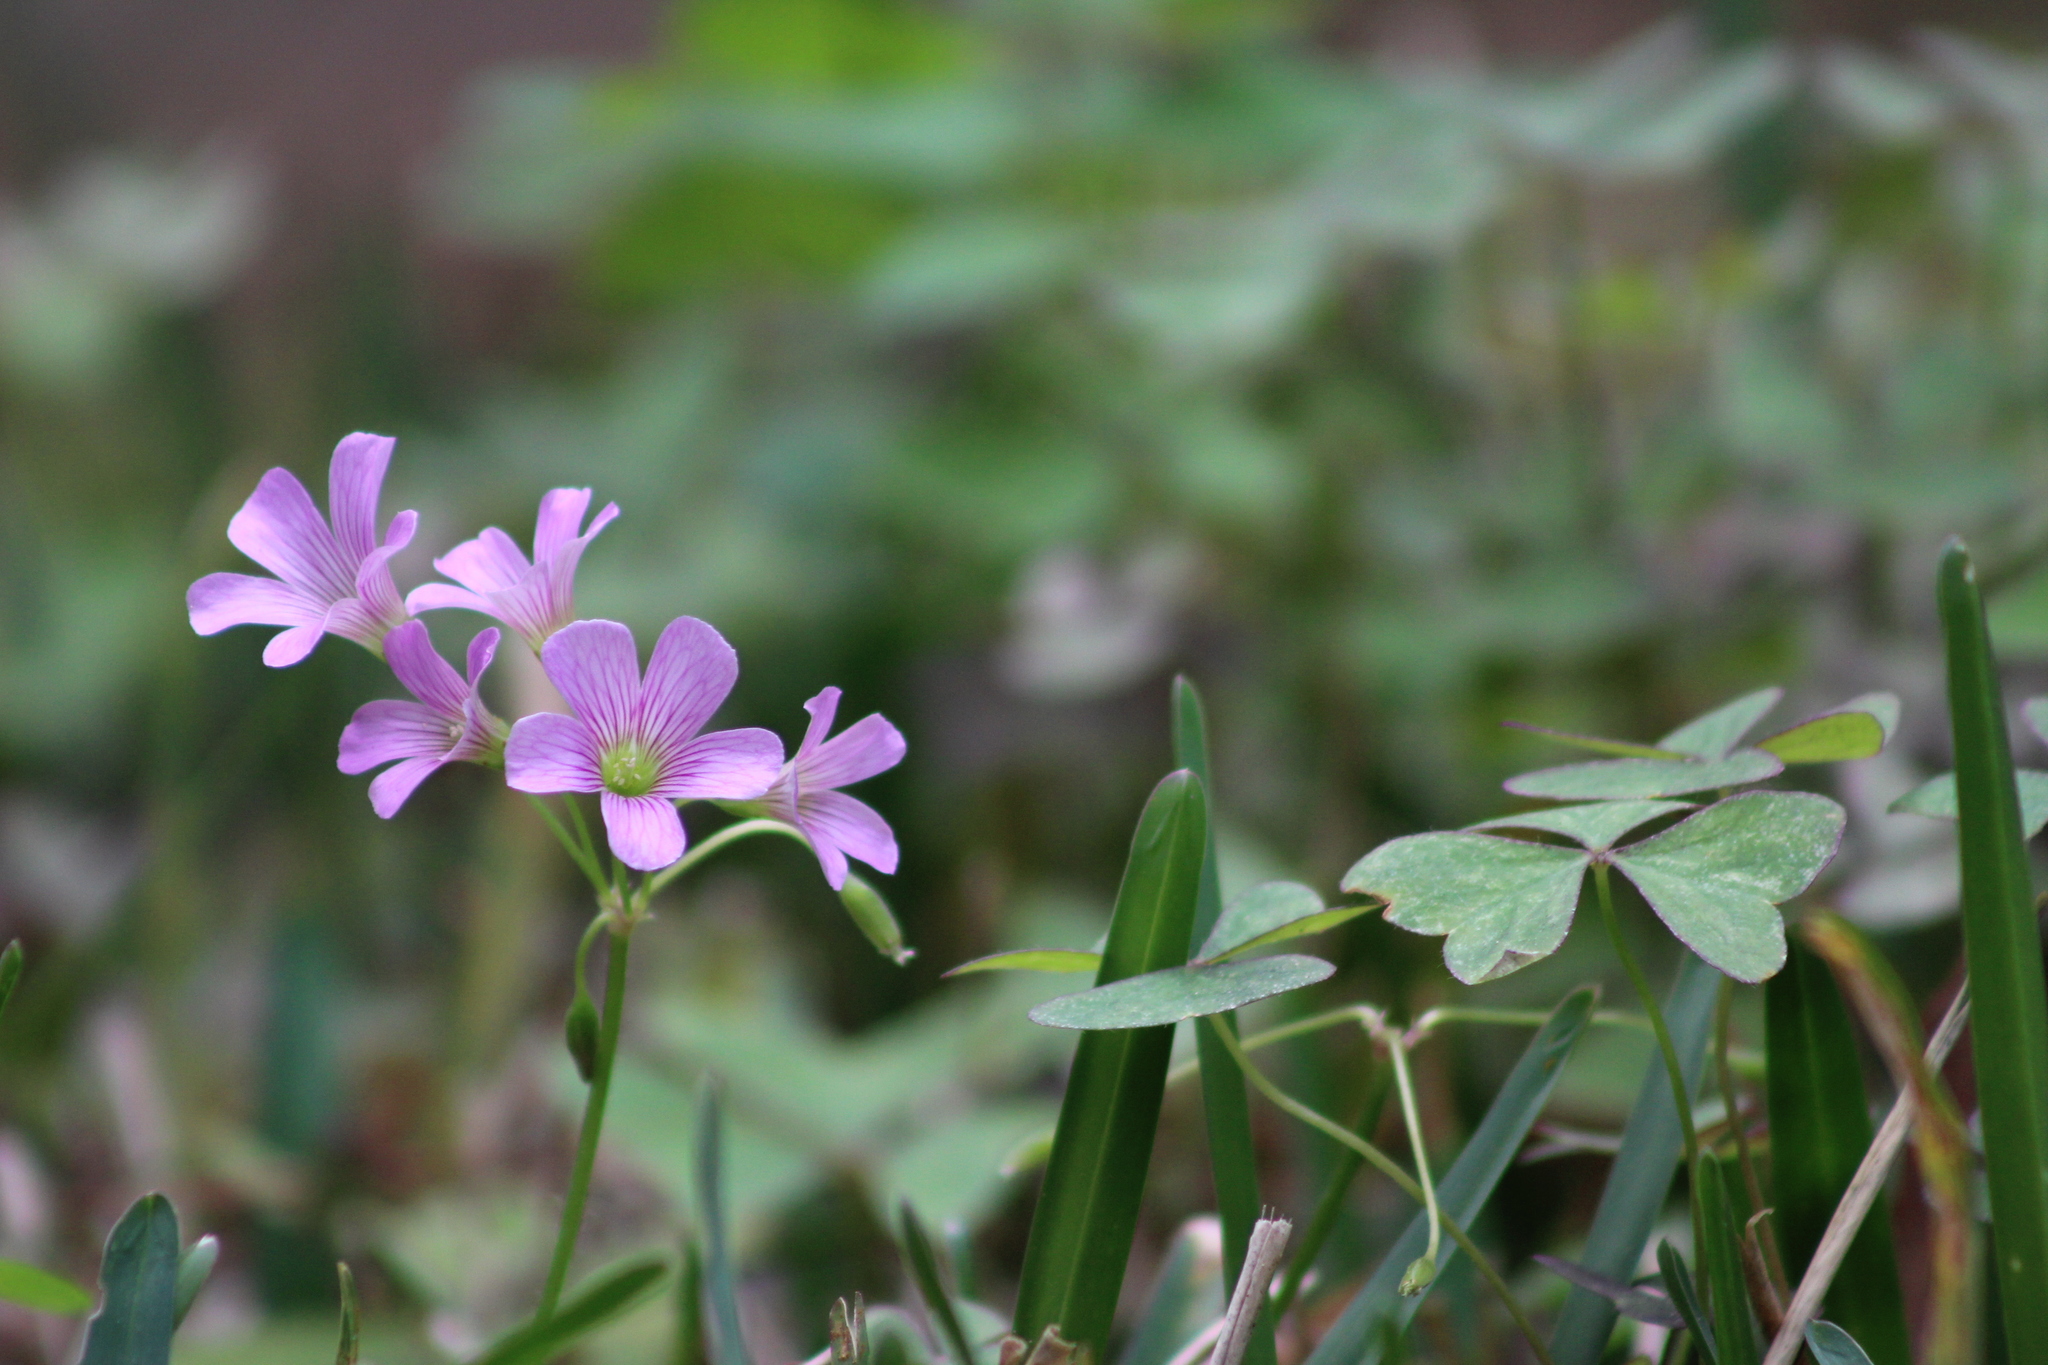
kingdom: Plantae
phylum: Tracheophyta
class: Magnoliopsida
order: Oxalidales
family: Oxalidaceae
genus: Oxalis
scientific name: Oxalis debilis
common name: Large-flowered pink-sorrel
